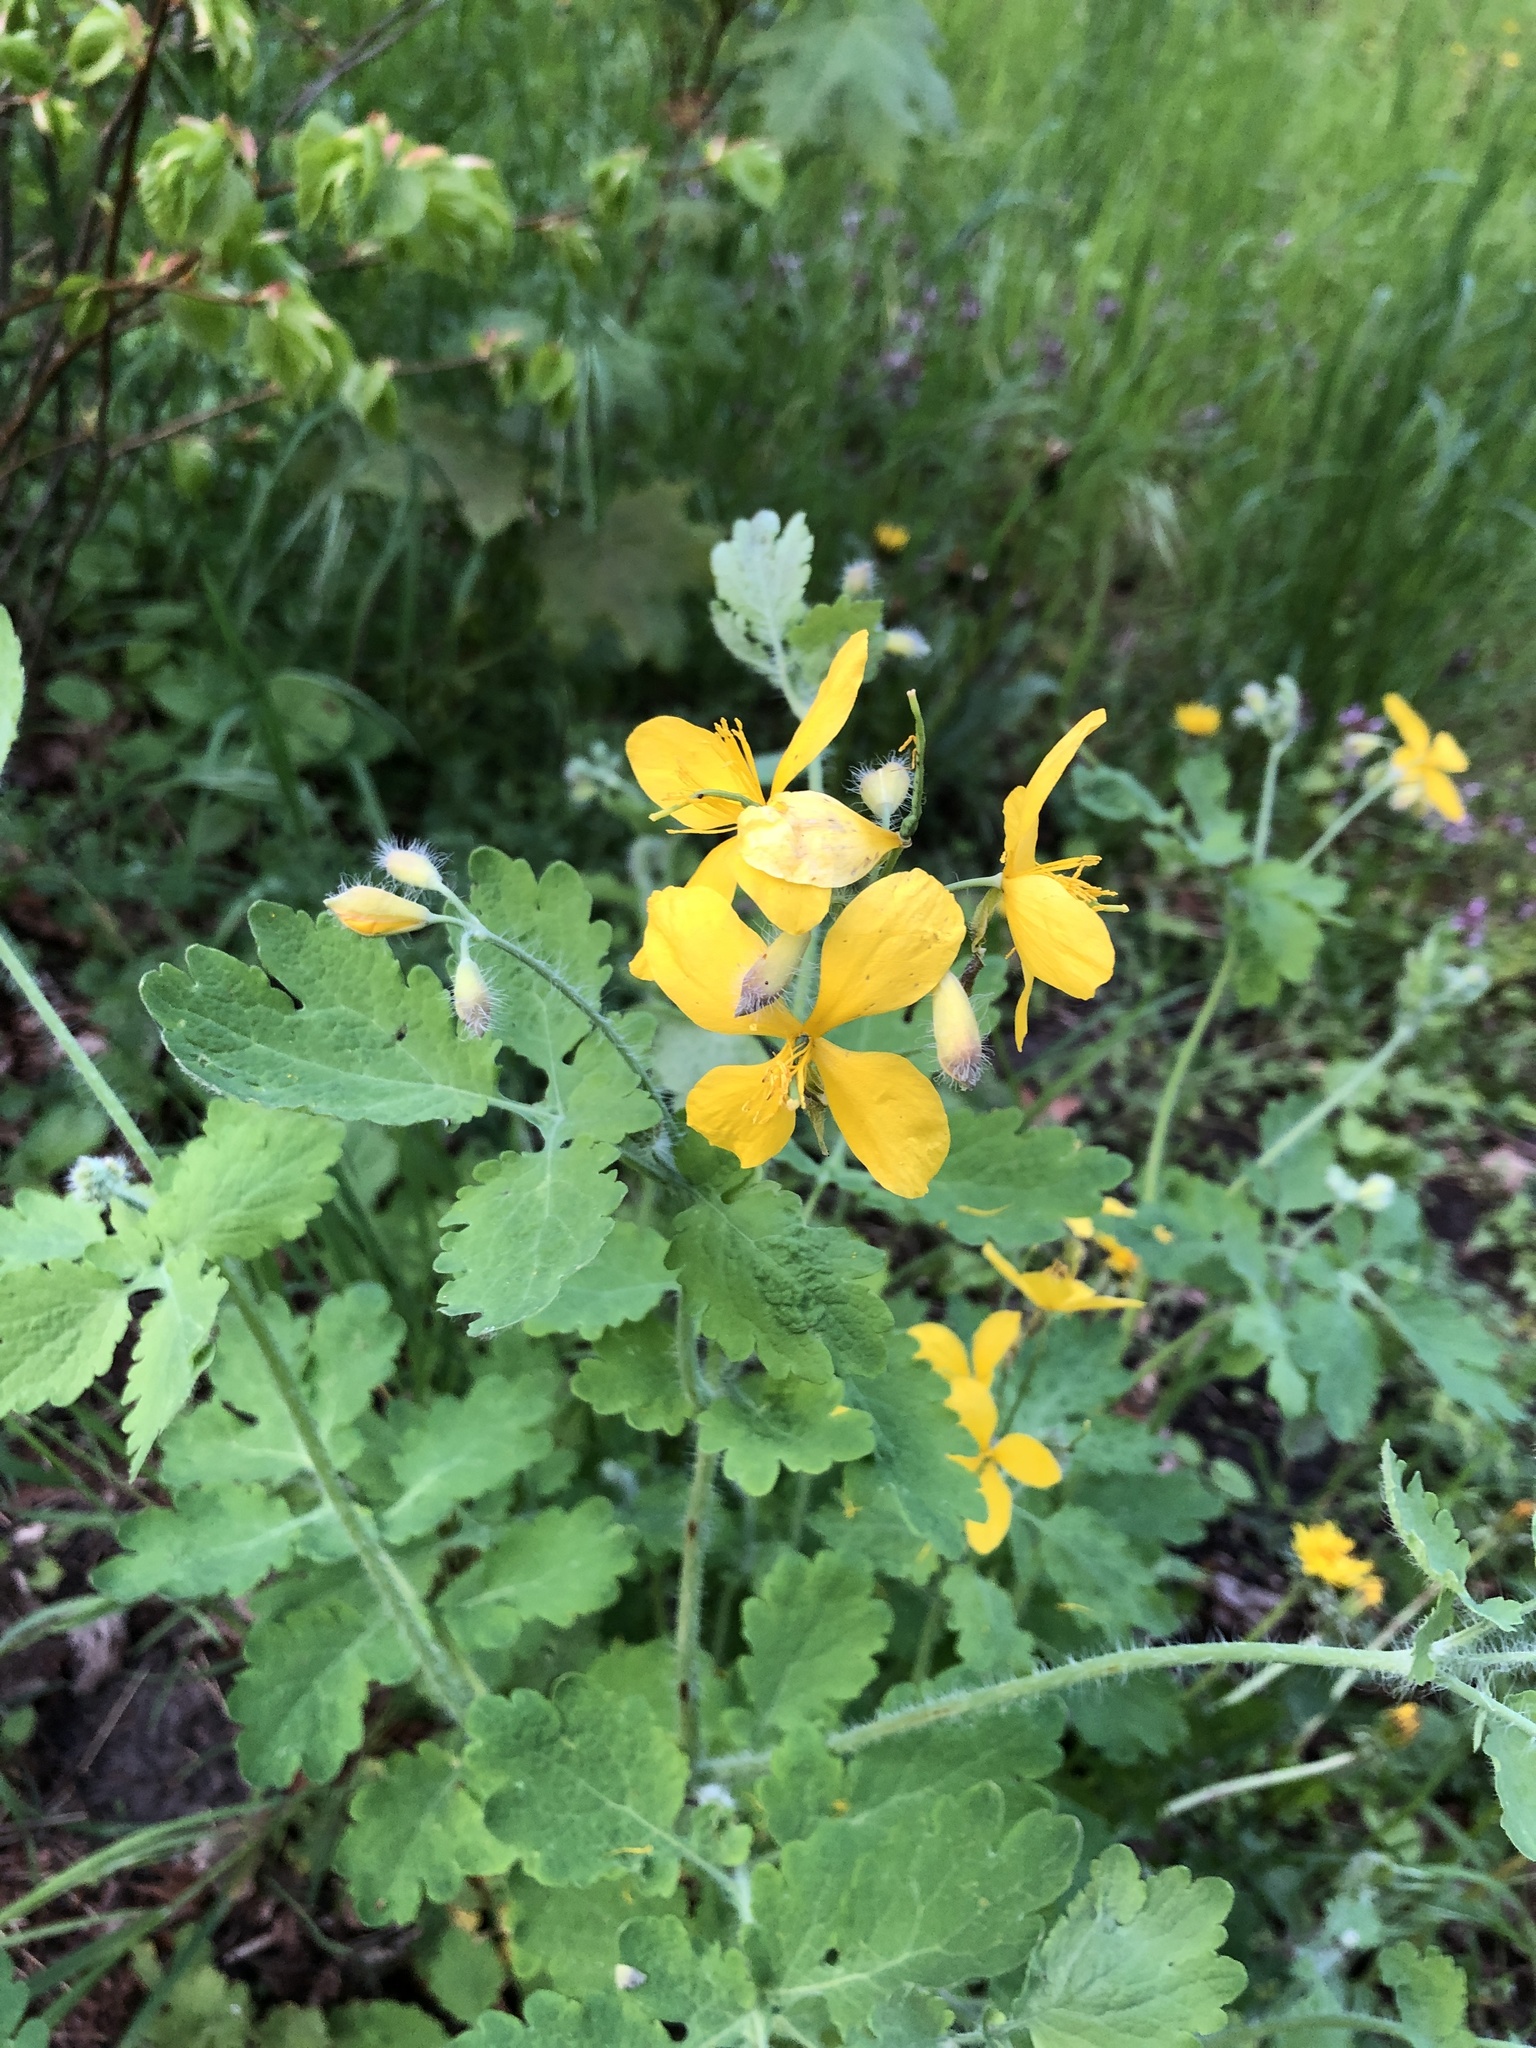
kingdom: Plantae
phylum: Tracheophyta
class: Magnoliopsida
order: Ranunculales
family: Papaveraceae
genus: Chelidonium
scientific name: Chelidonium majus
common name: Greater celandine
